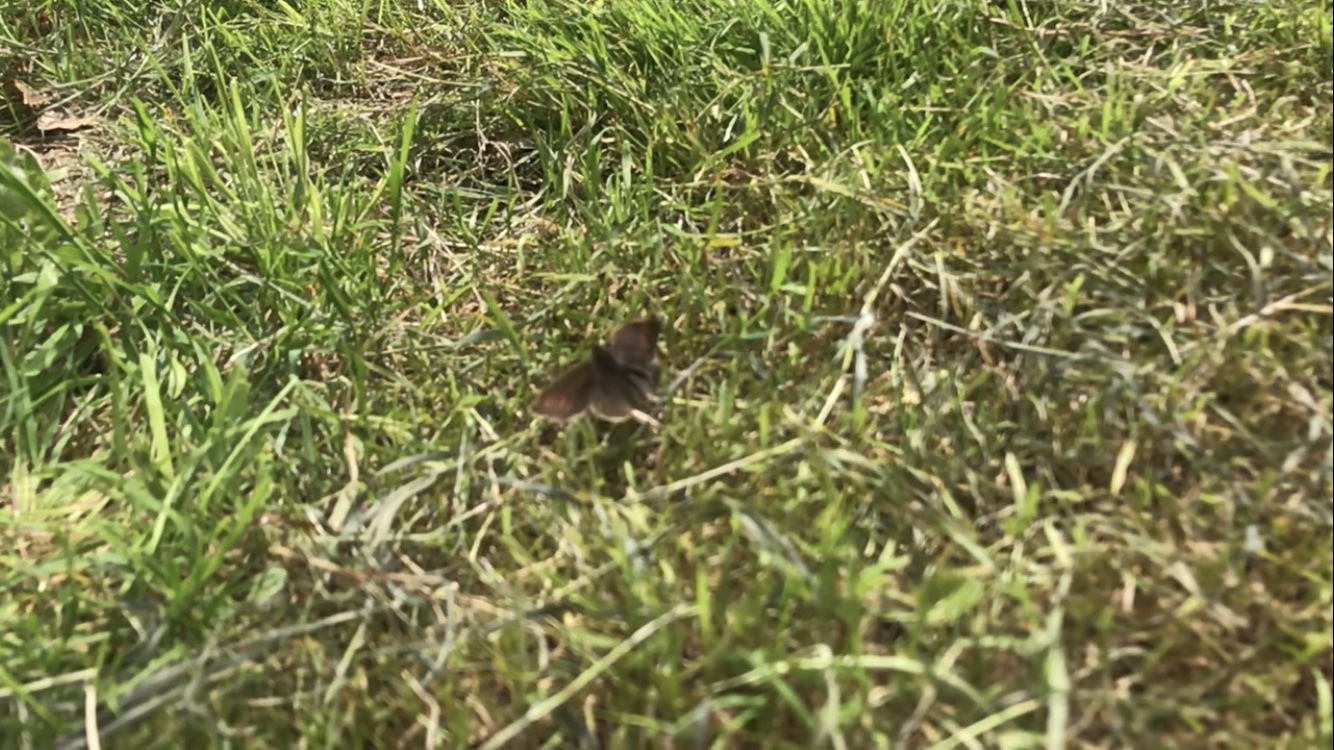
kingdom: Animalia
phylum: Arthropoda
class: Insecta
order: Lepidoptera
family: Nymphalidae
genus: Maniola
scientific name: Maniola jurtina
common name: Meadow brown
